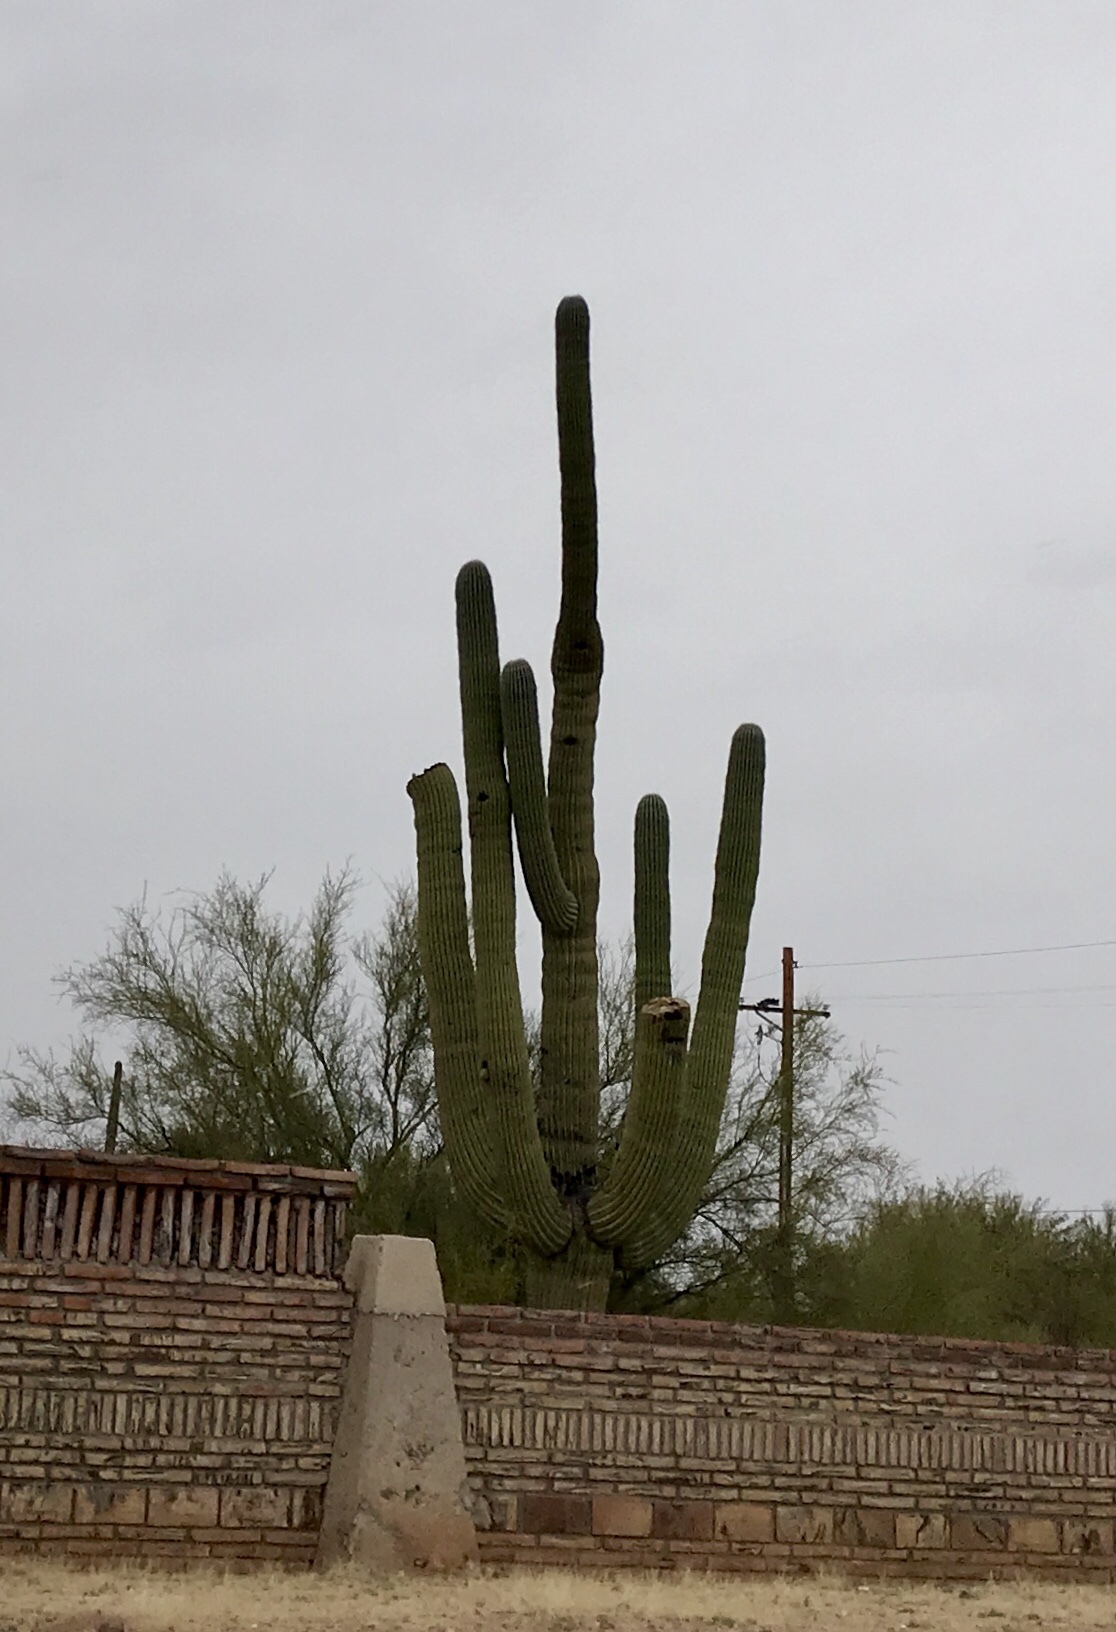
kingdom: Plantae
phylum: Tracheophyta
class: Magnoliopsida
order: Caryophyllales
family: Cactaceae
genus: Carnegiea
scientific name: Carnegiea gigantea
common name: Saguaro
